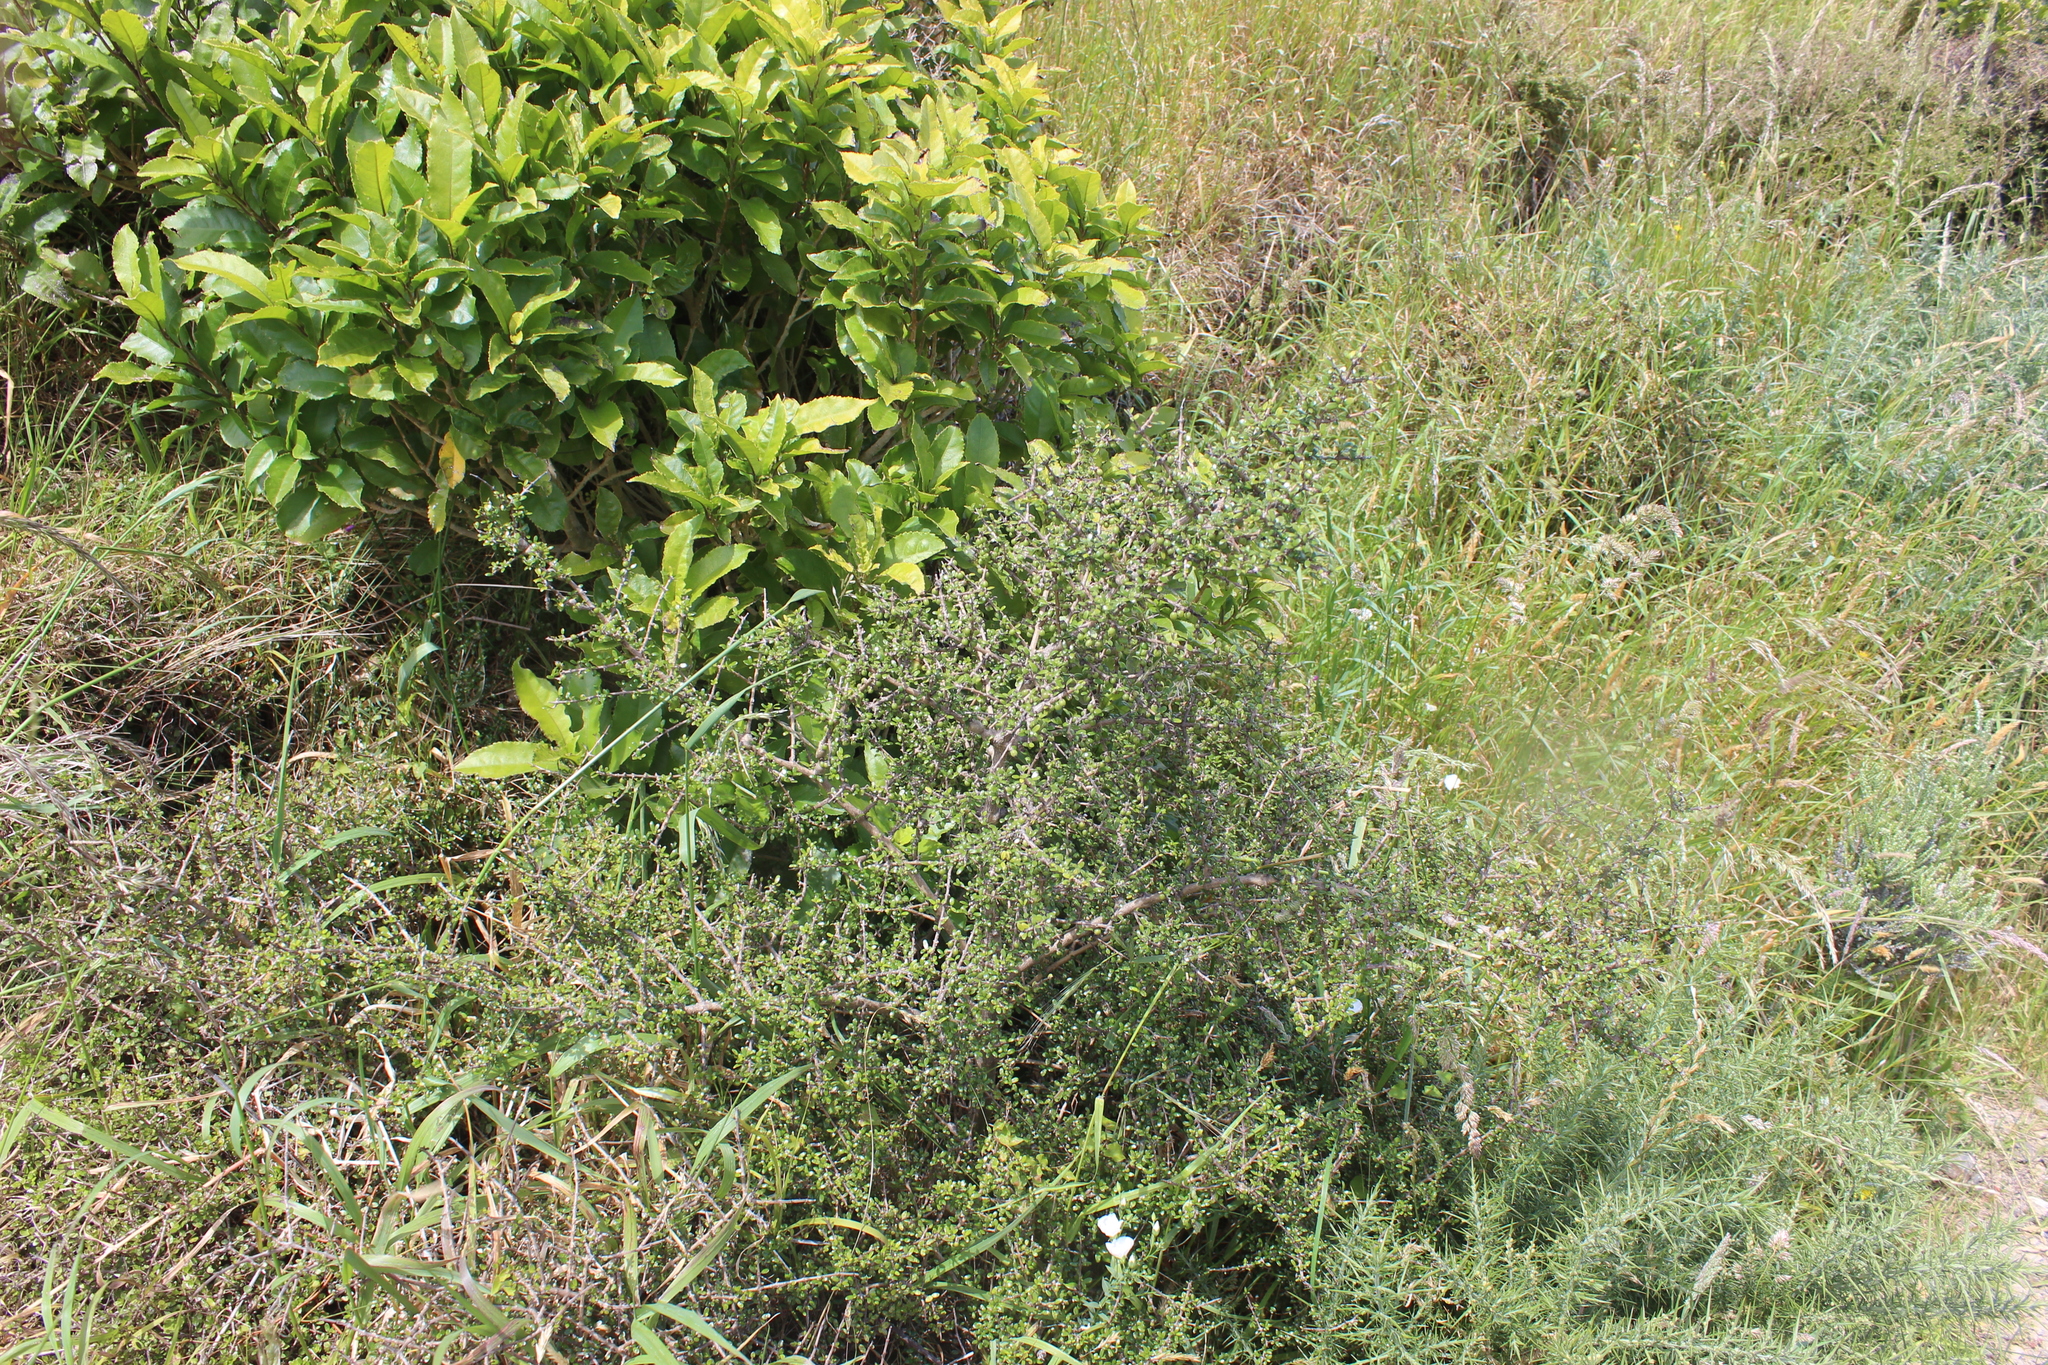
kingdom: Plantae
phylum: Tracheophyta
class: Magnoliopsida
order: Gentianales
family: Rubiaceae
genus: Coprosma
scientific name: Coprosma propinqua
